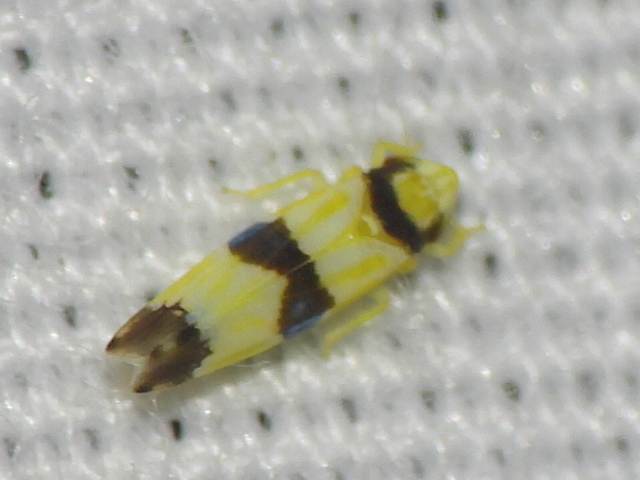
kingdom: Animalia
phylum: Arthropoda
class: Insecta
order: Hemiptera
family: Cicadellidae
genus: Erythroneura
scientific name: Erythroneura calycula
